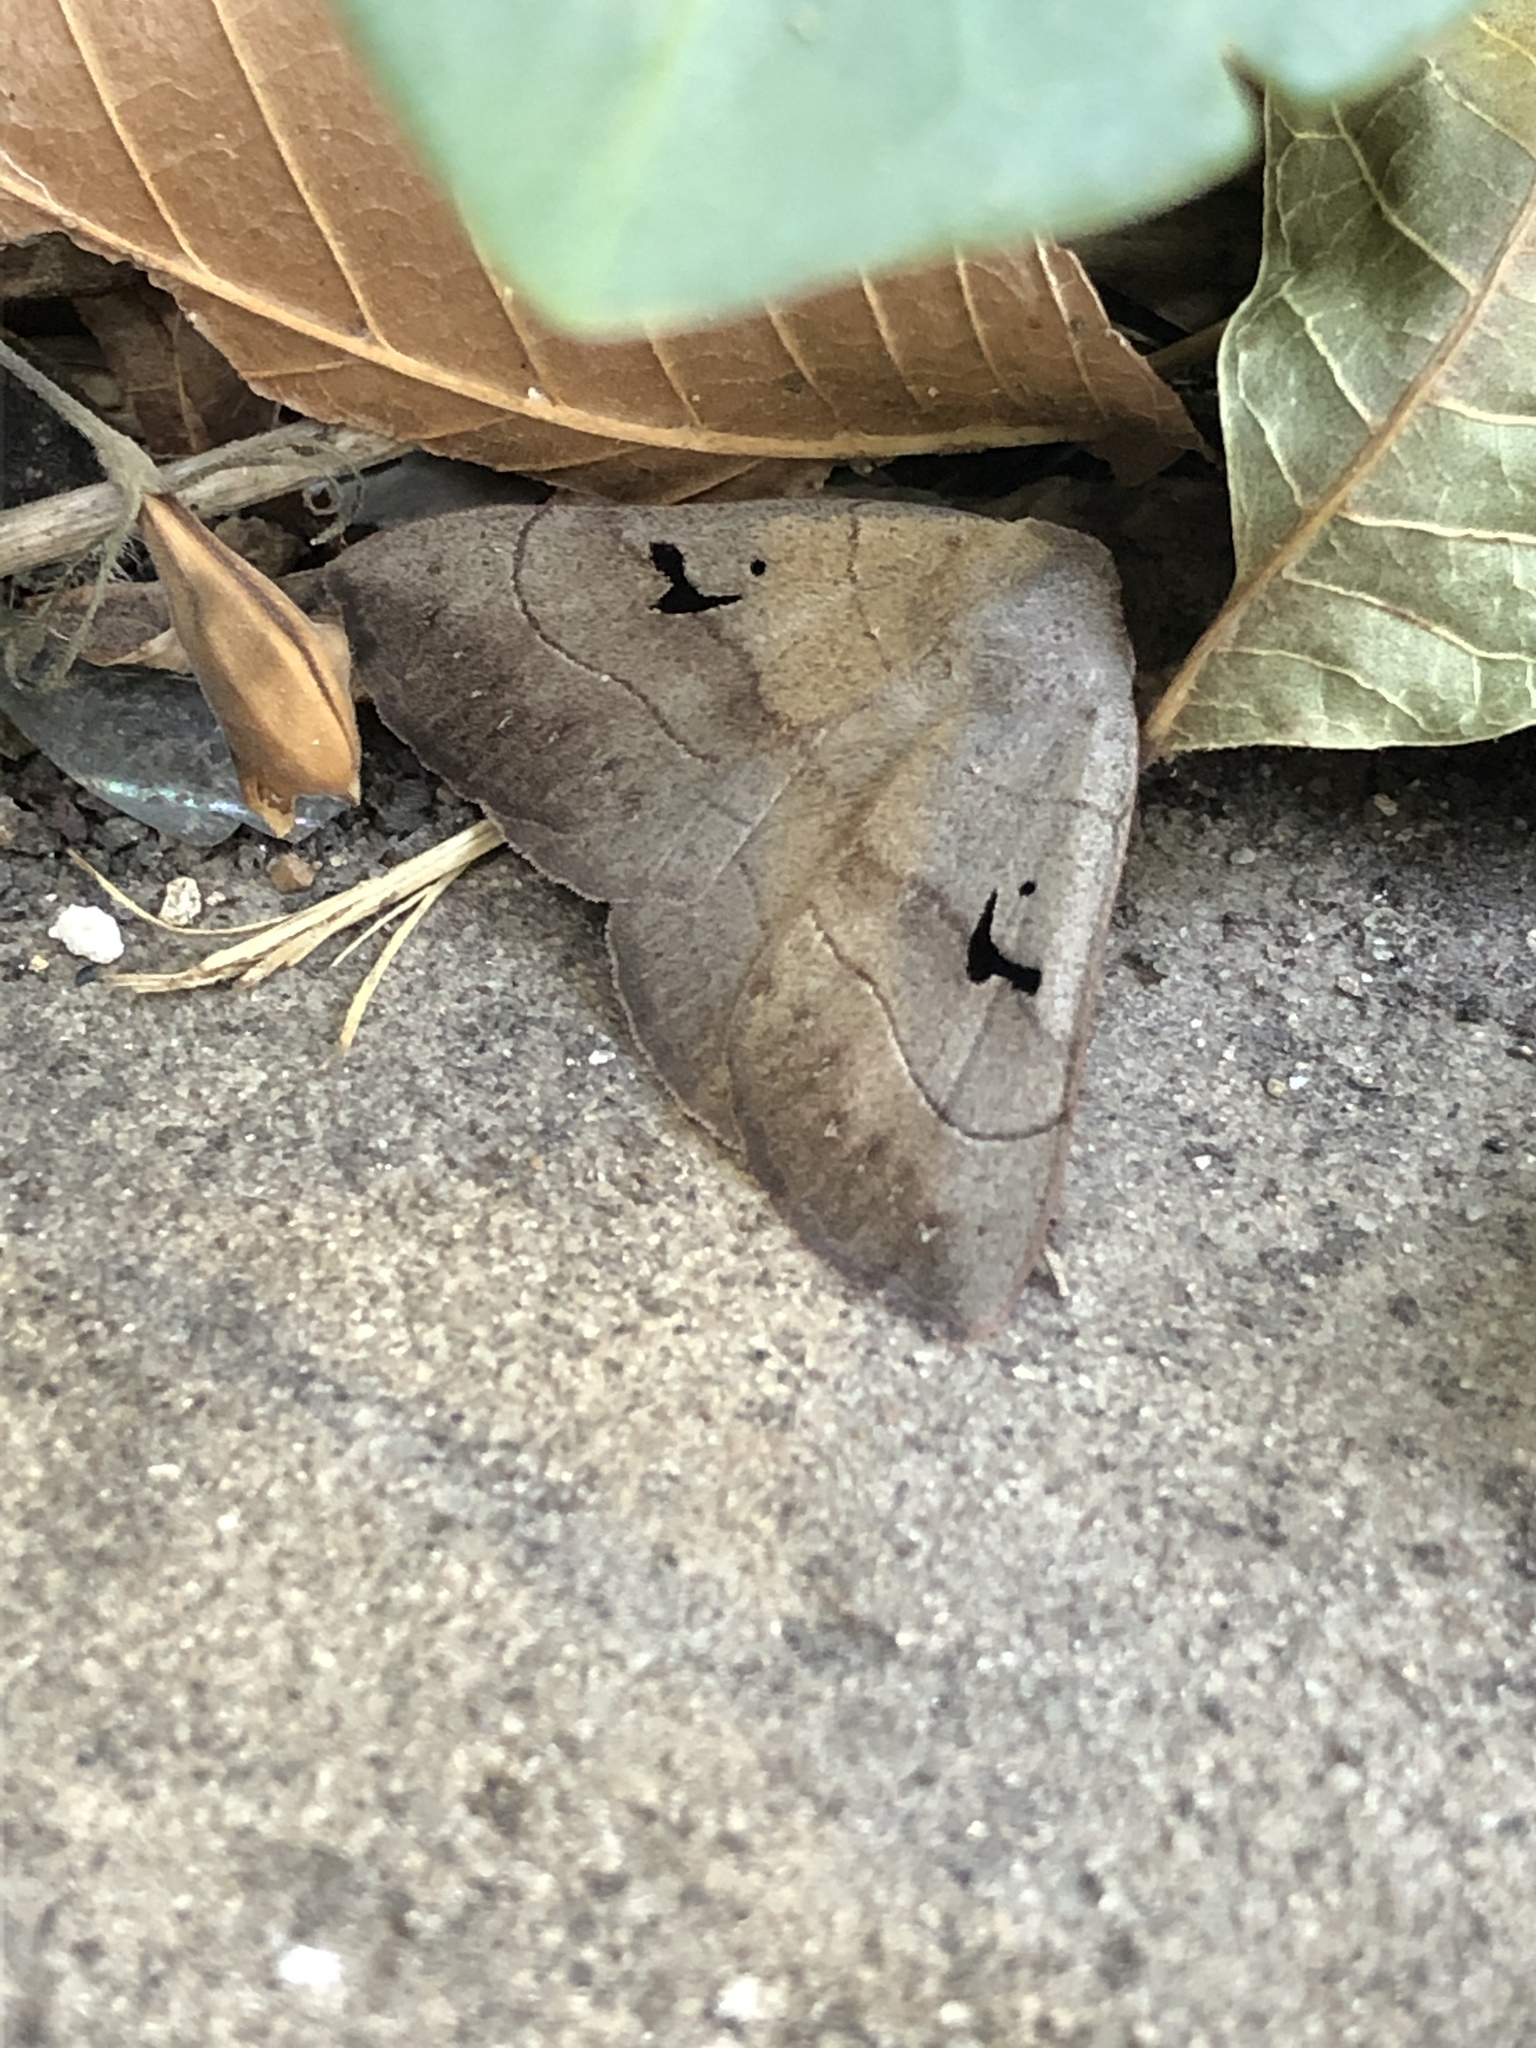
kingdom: Animalia
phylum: Arthropoda
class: Insecta
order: Lepidoptera
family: Erebidae
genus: Panopoda
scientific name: Panopoda carneicosta
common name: Brown panopoda moth
